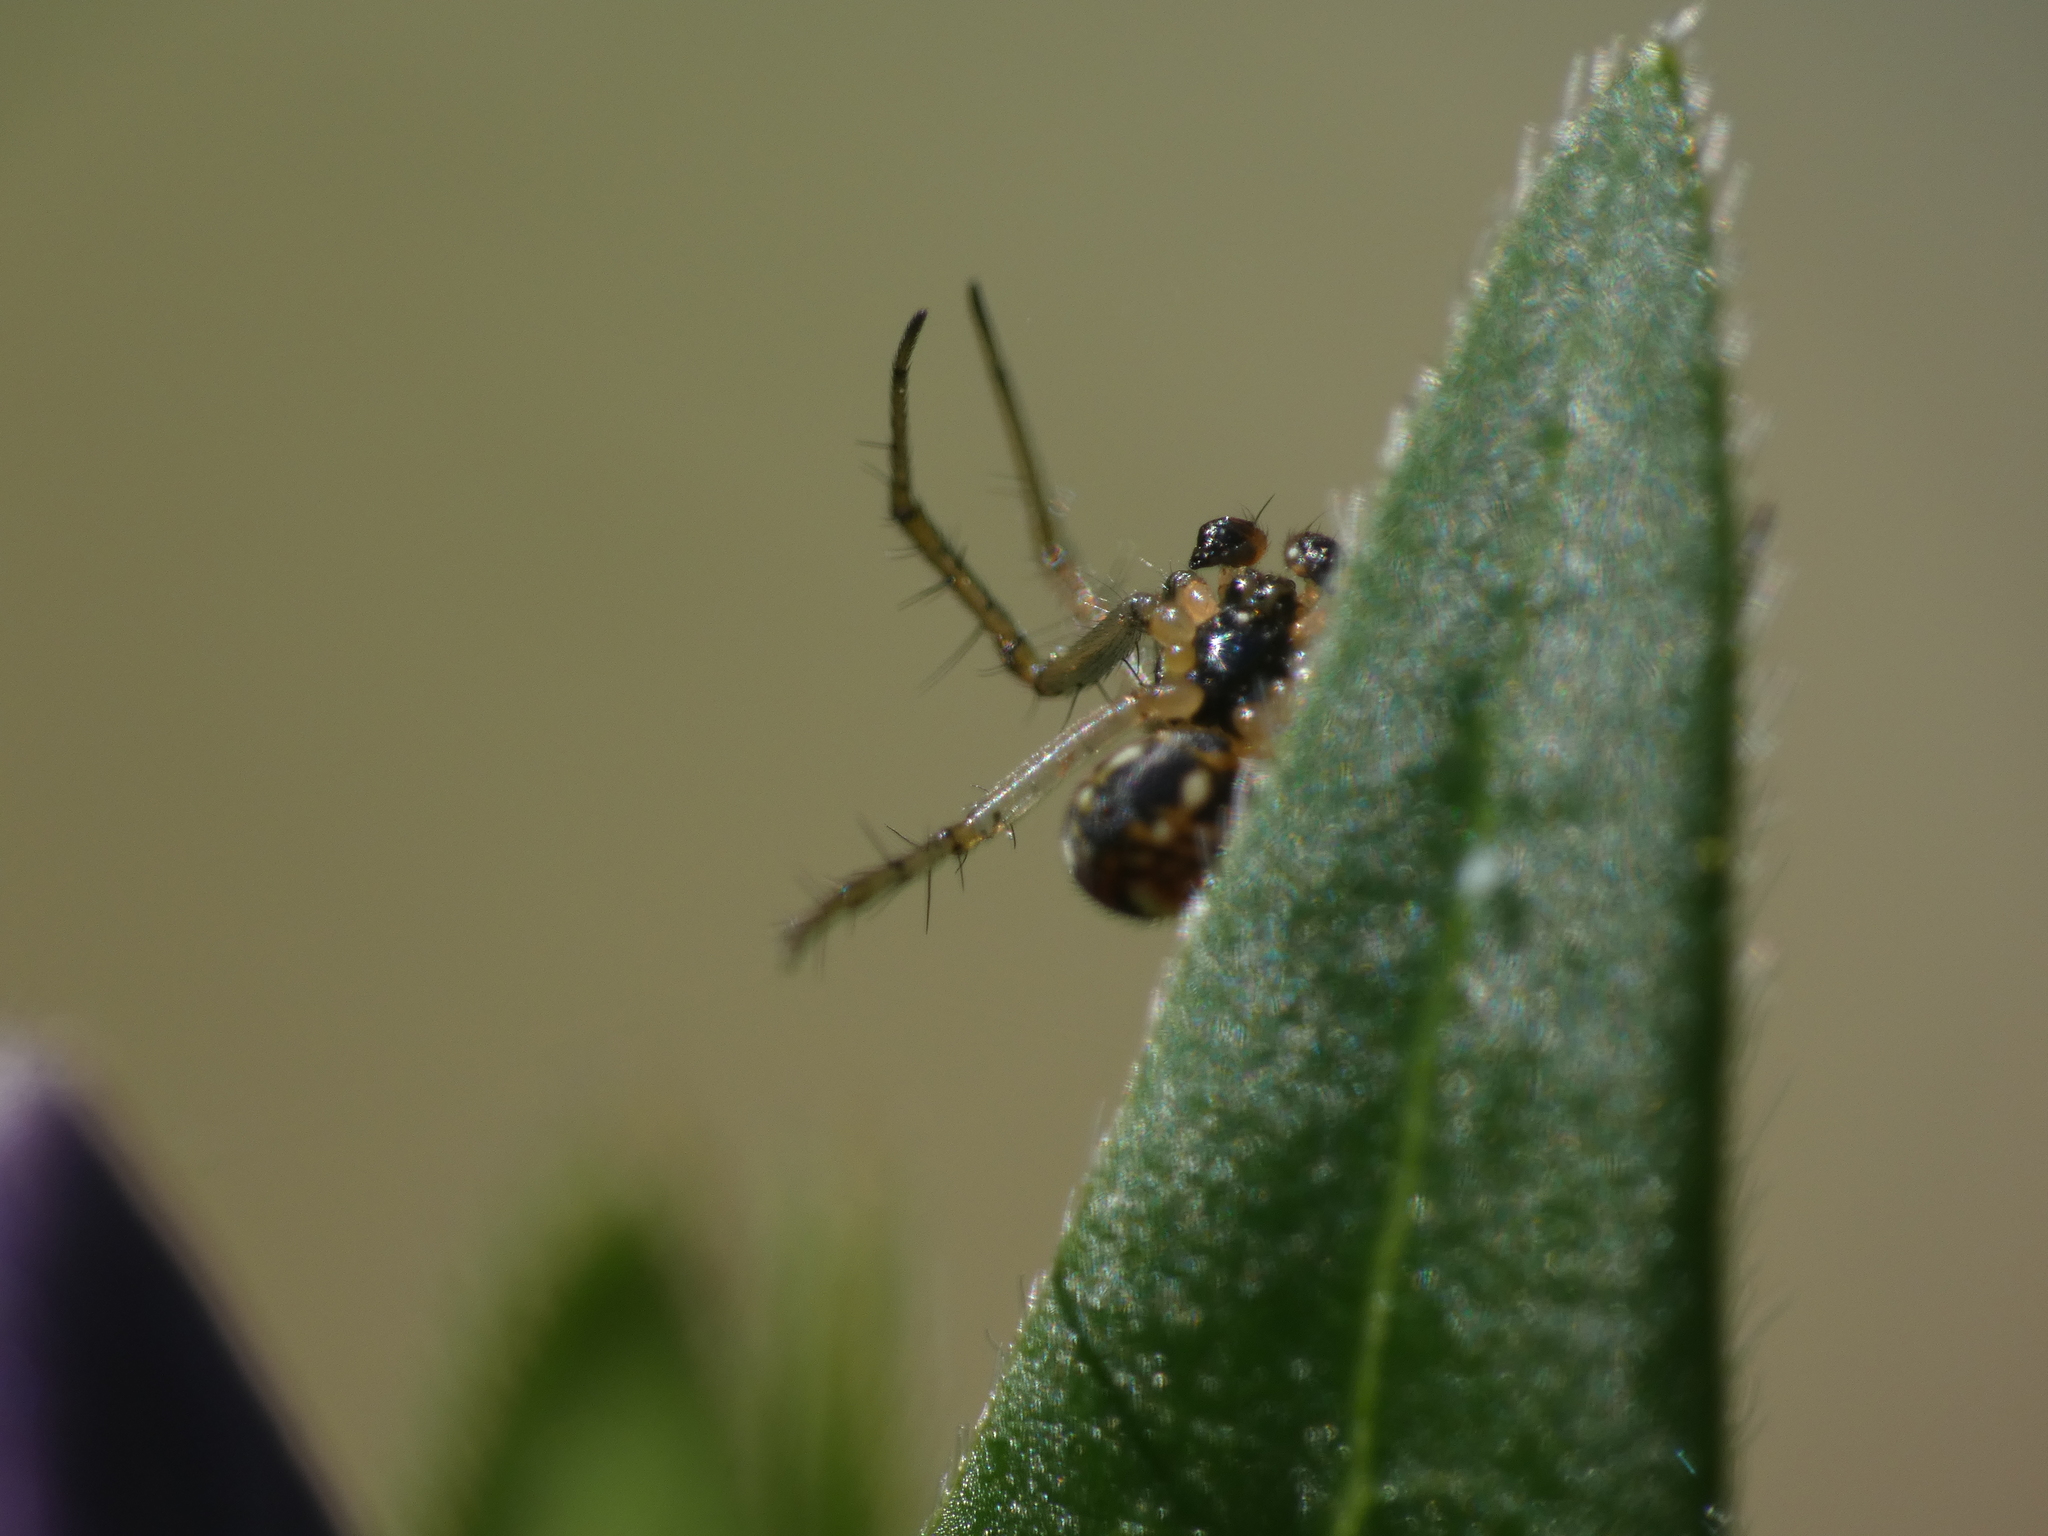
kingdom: Animalia
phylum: Arthropoda
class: Arachnida
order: Araneae
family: Araneidae
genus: Mangora
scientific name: Mangora acalypha
